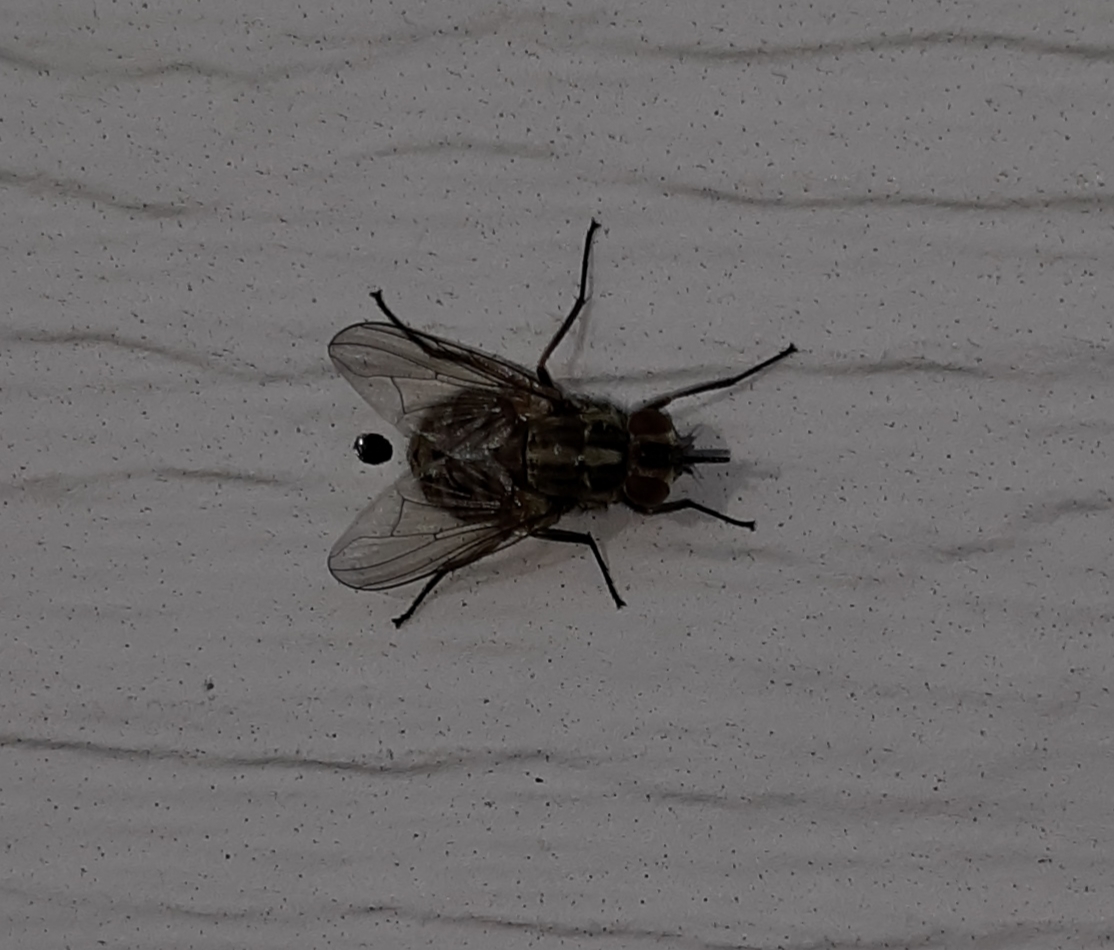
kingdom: Animalia
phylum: Arthropoda
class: Insecta
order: Diptera
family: Muscidae
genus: Stomoxys
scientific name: Stomoxys calcitrans
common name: Stable fly
